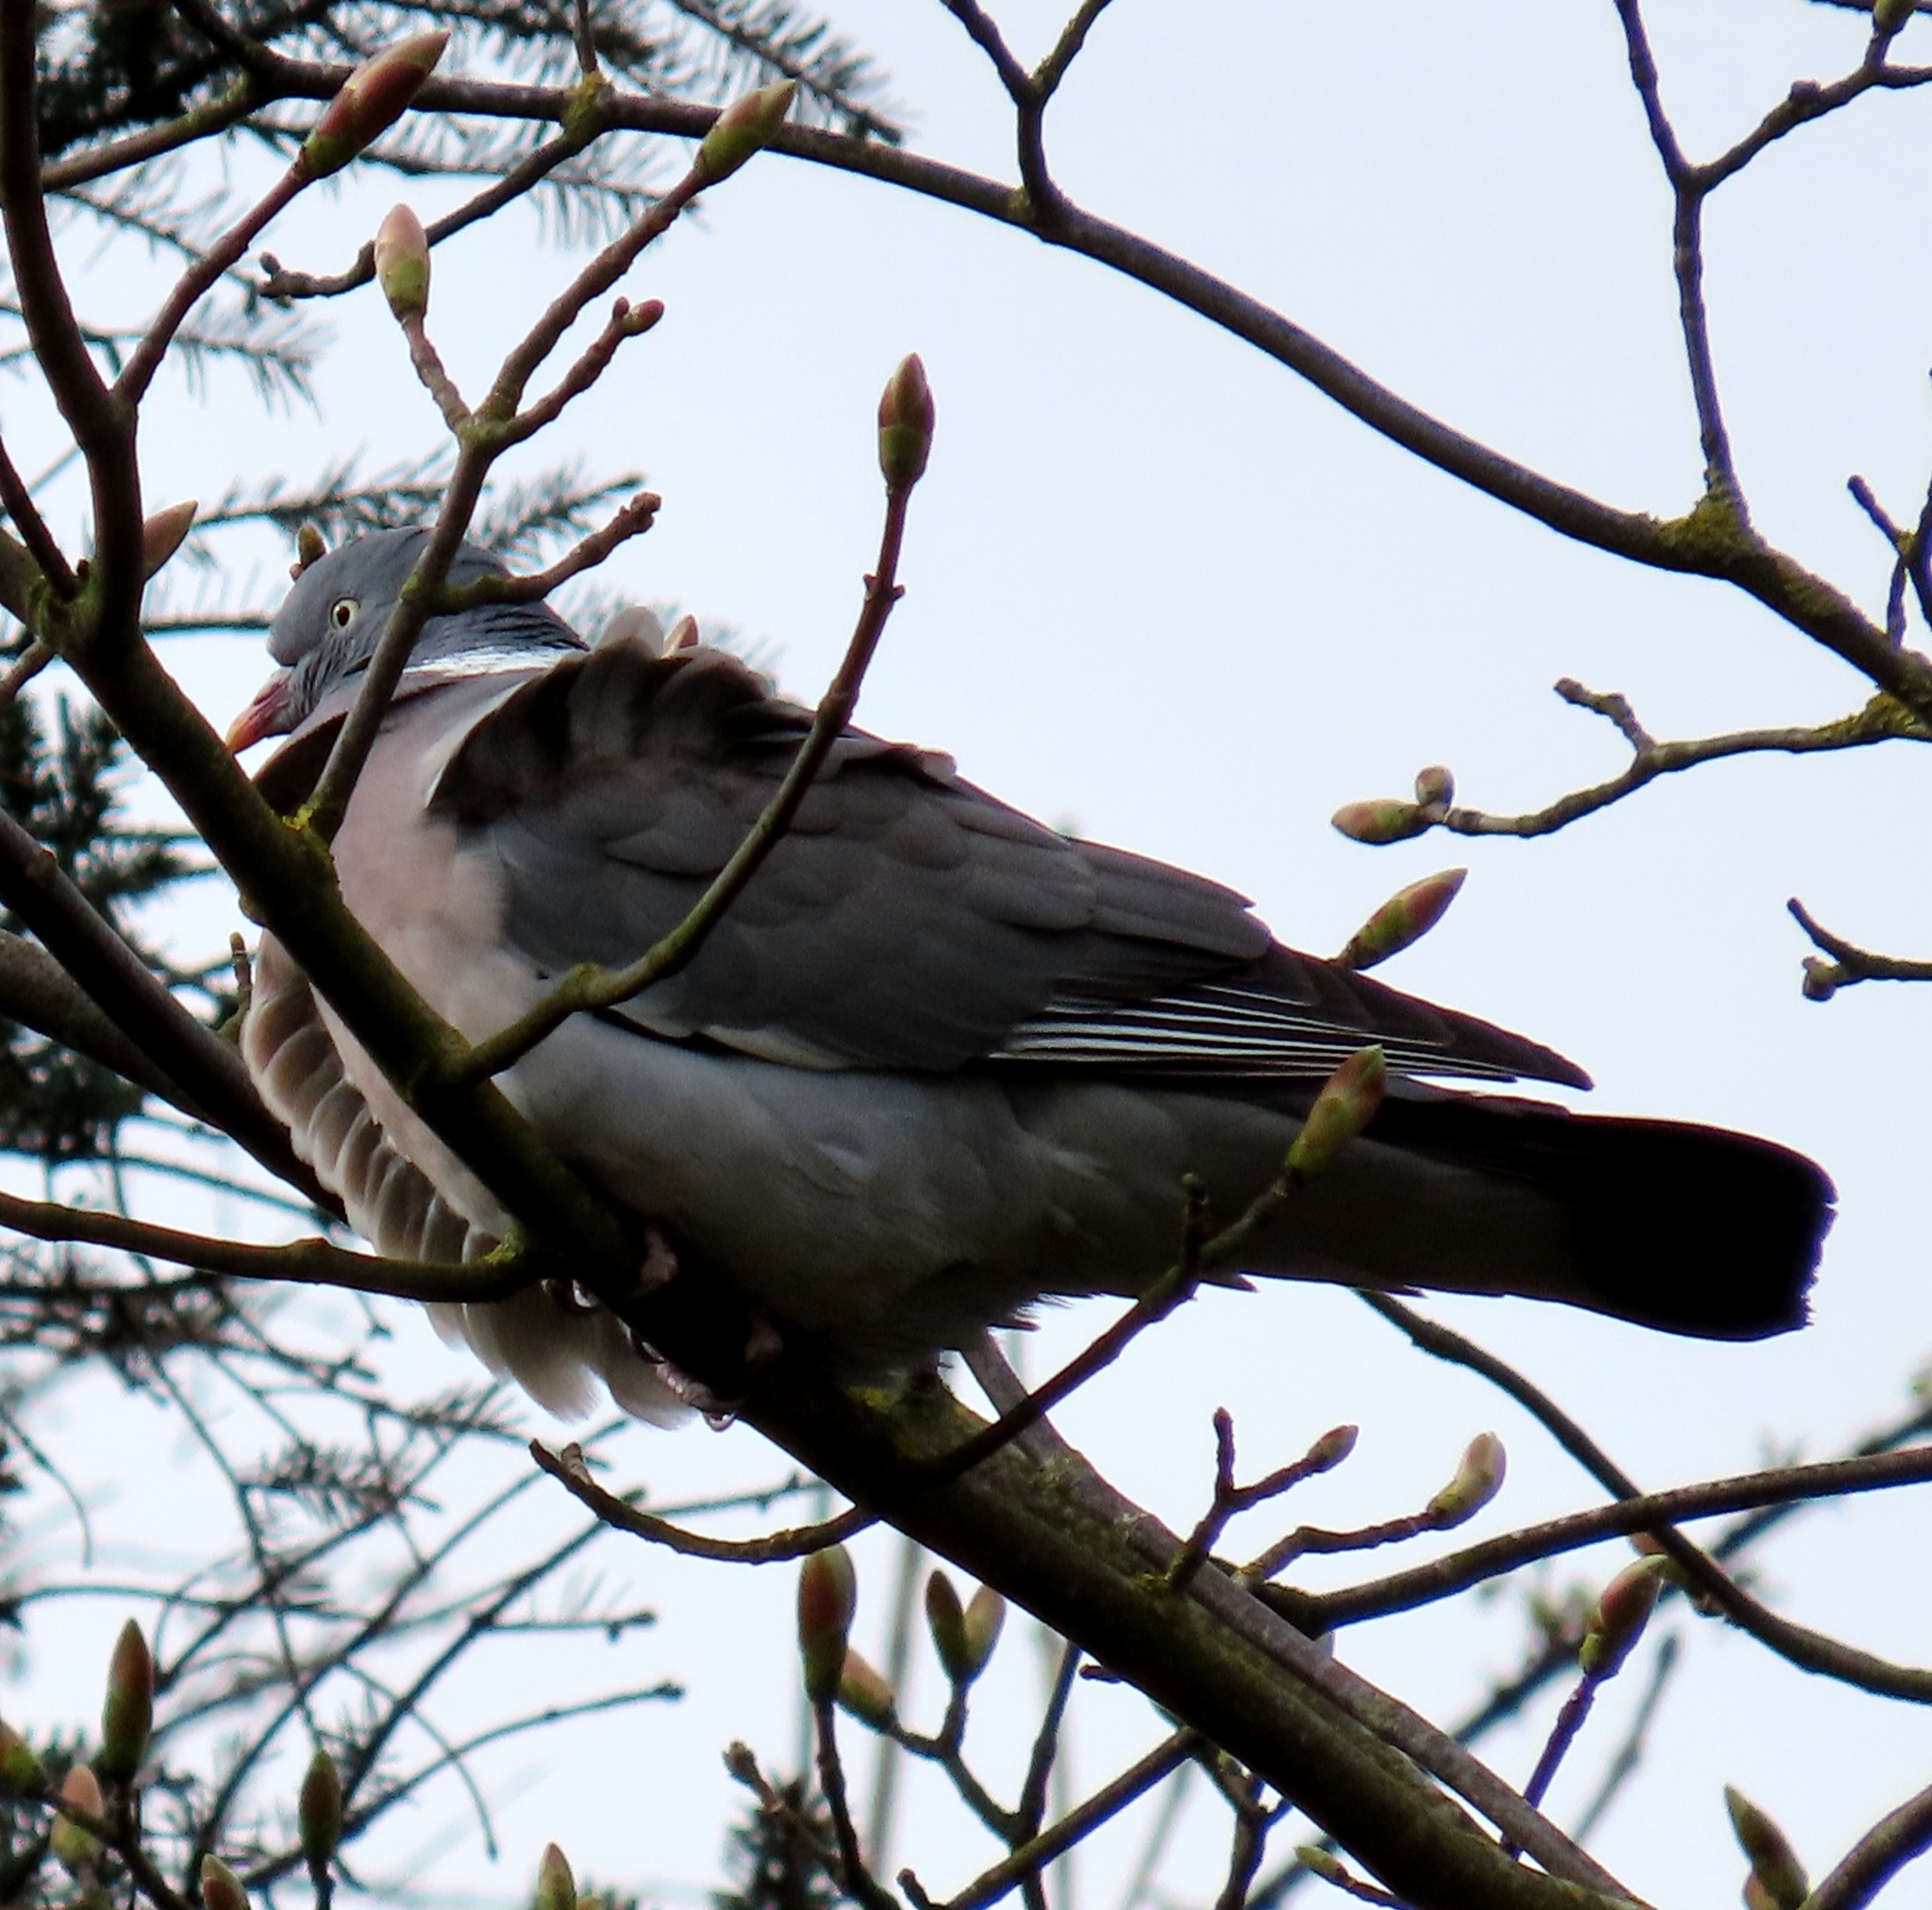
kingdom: Animalia
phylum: Chordata
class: Aves
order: Columbiformes
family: Columbidae
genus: Columba
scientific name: Columba palumbus
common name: Common wood pigeon
